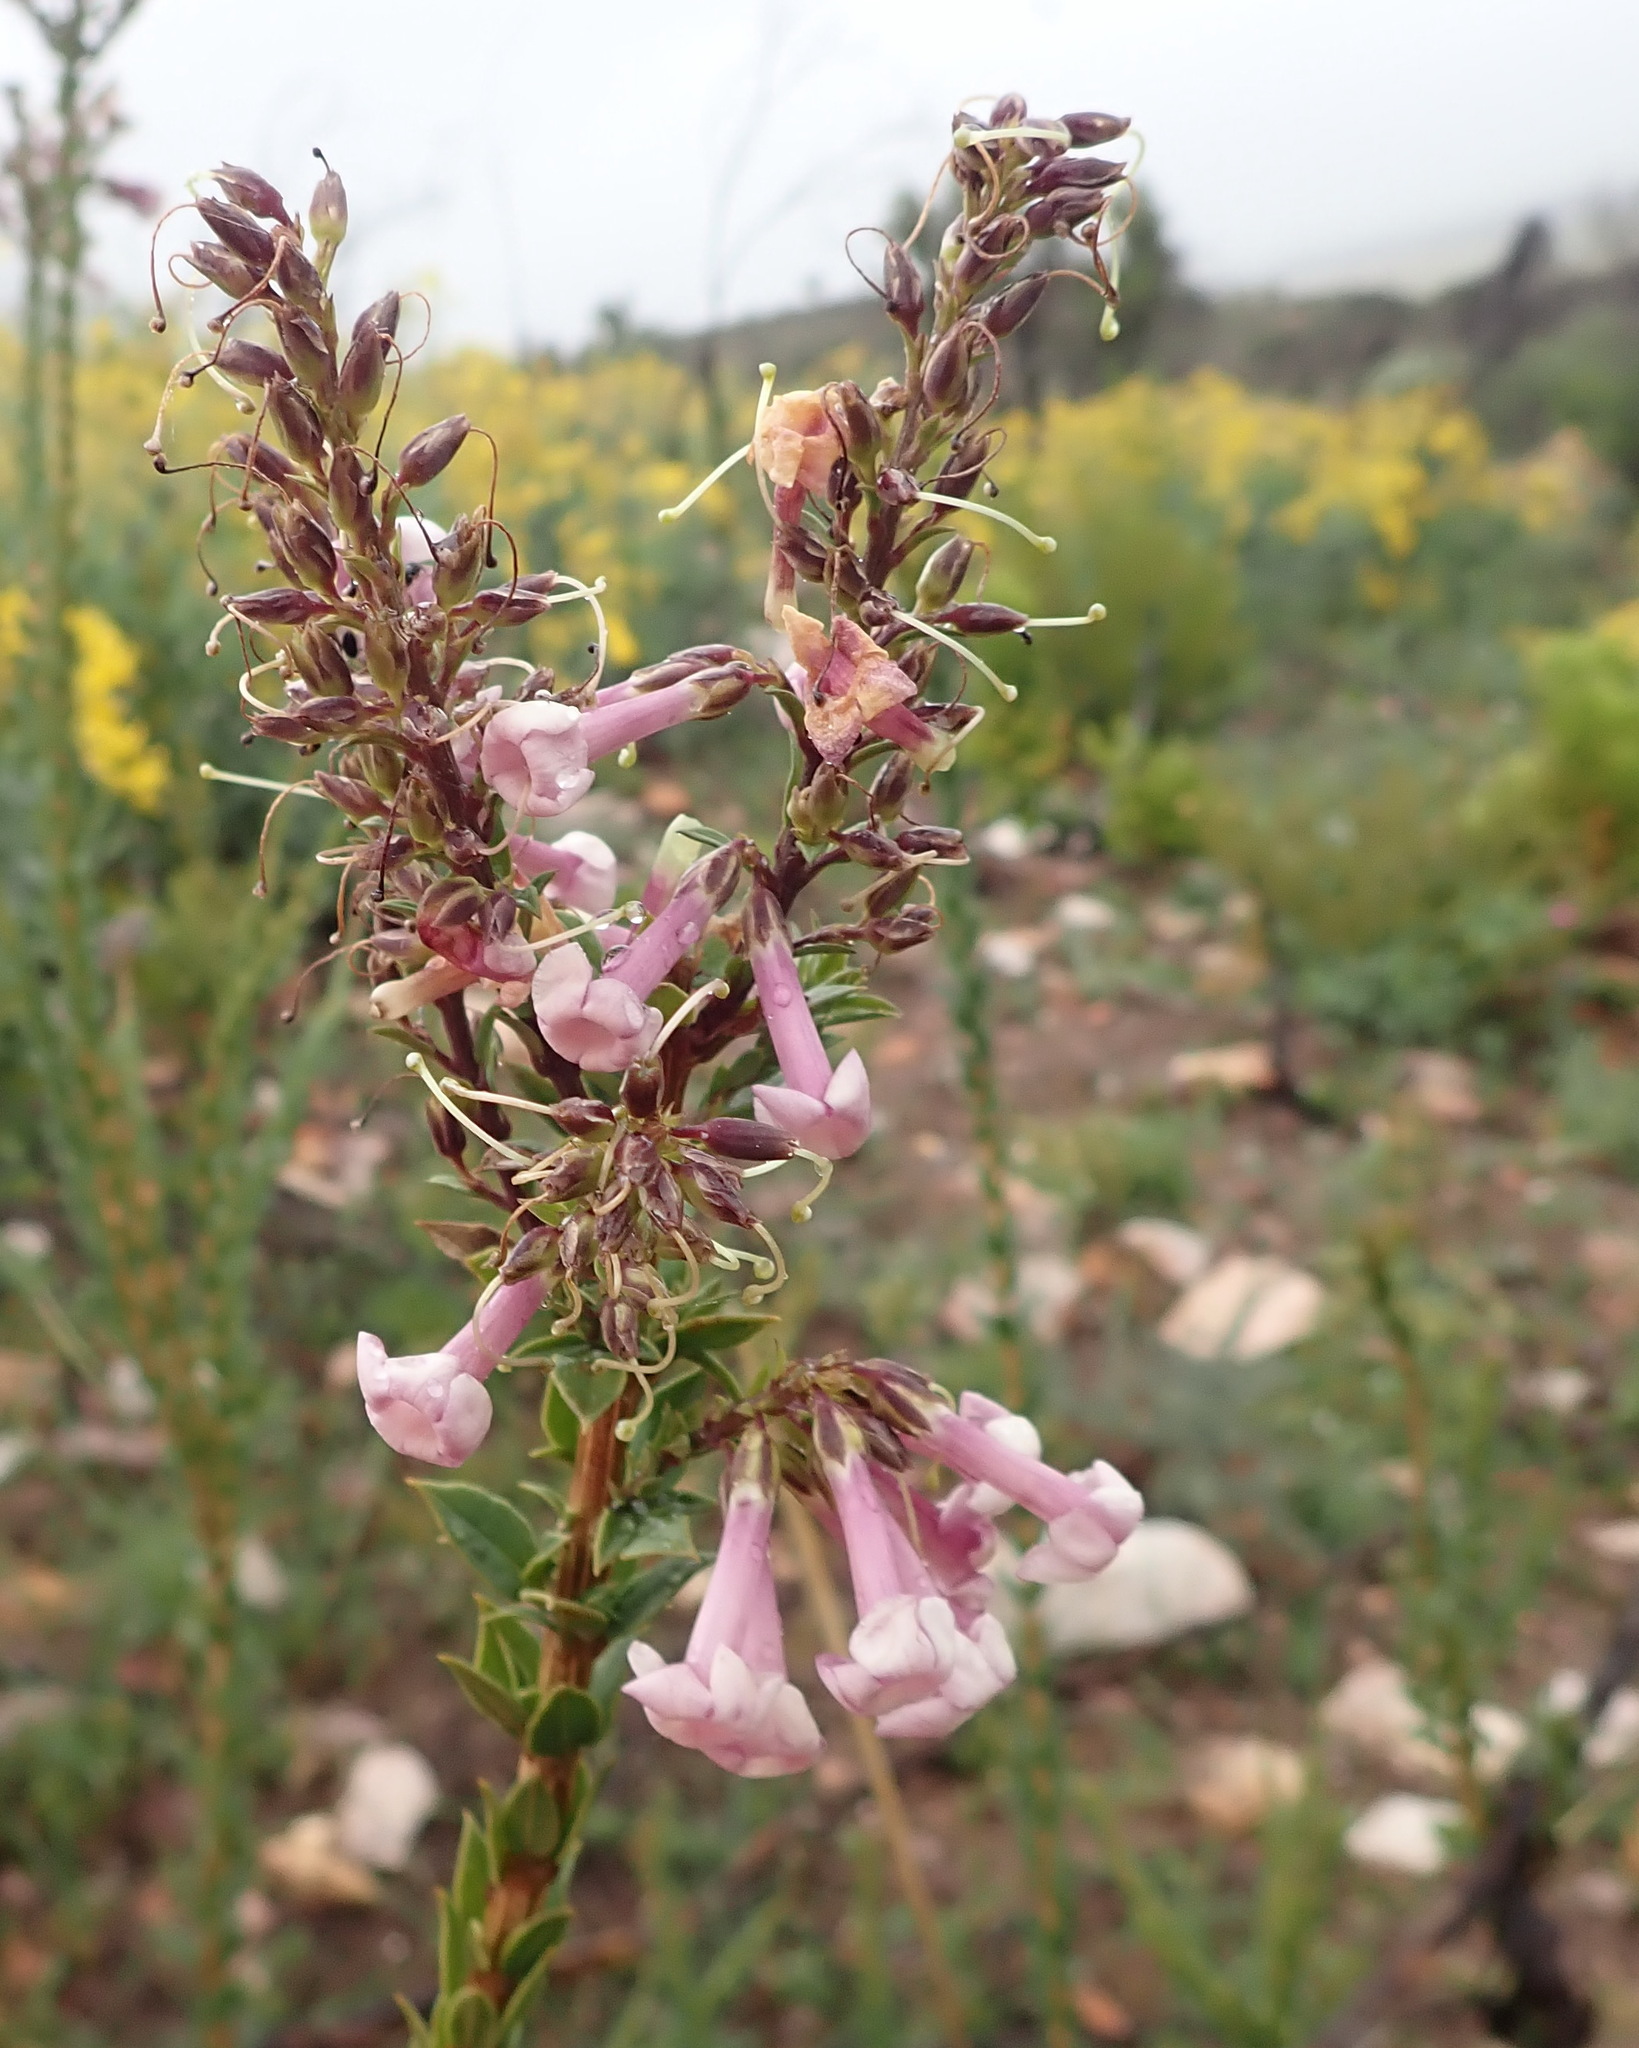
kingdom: Plantae
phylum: Tracheophyta
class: Magnoliopsida
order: Lamiales
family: Scrophulariaceae
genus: Freylinia
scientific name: Freylinia undulata
